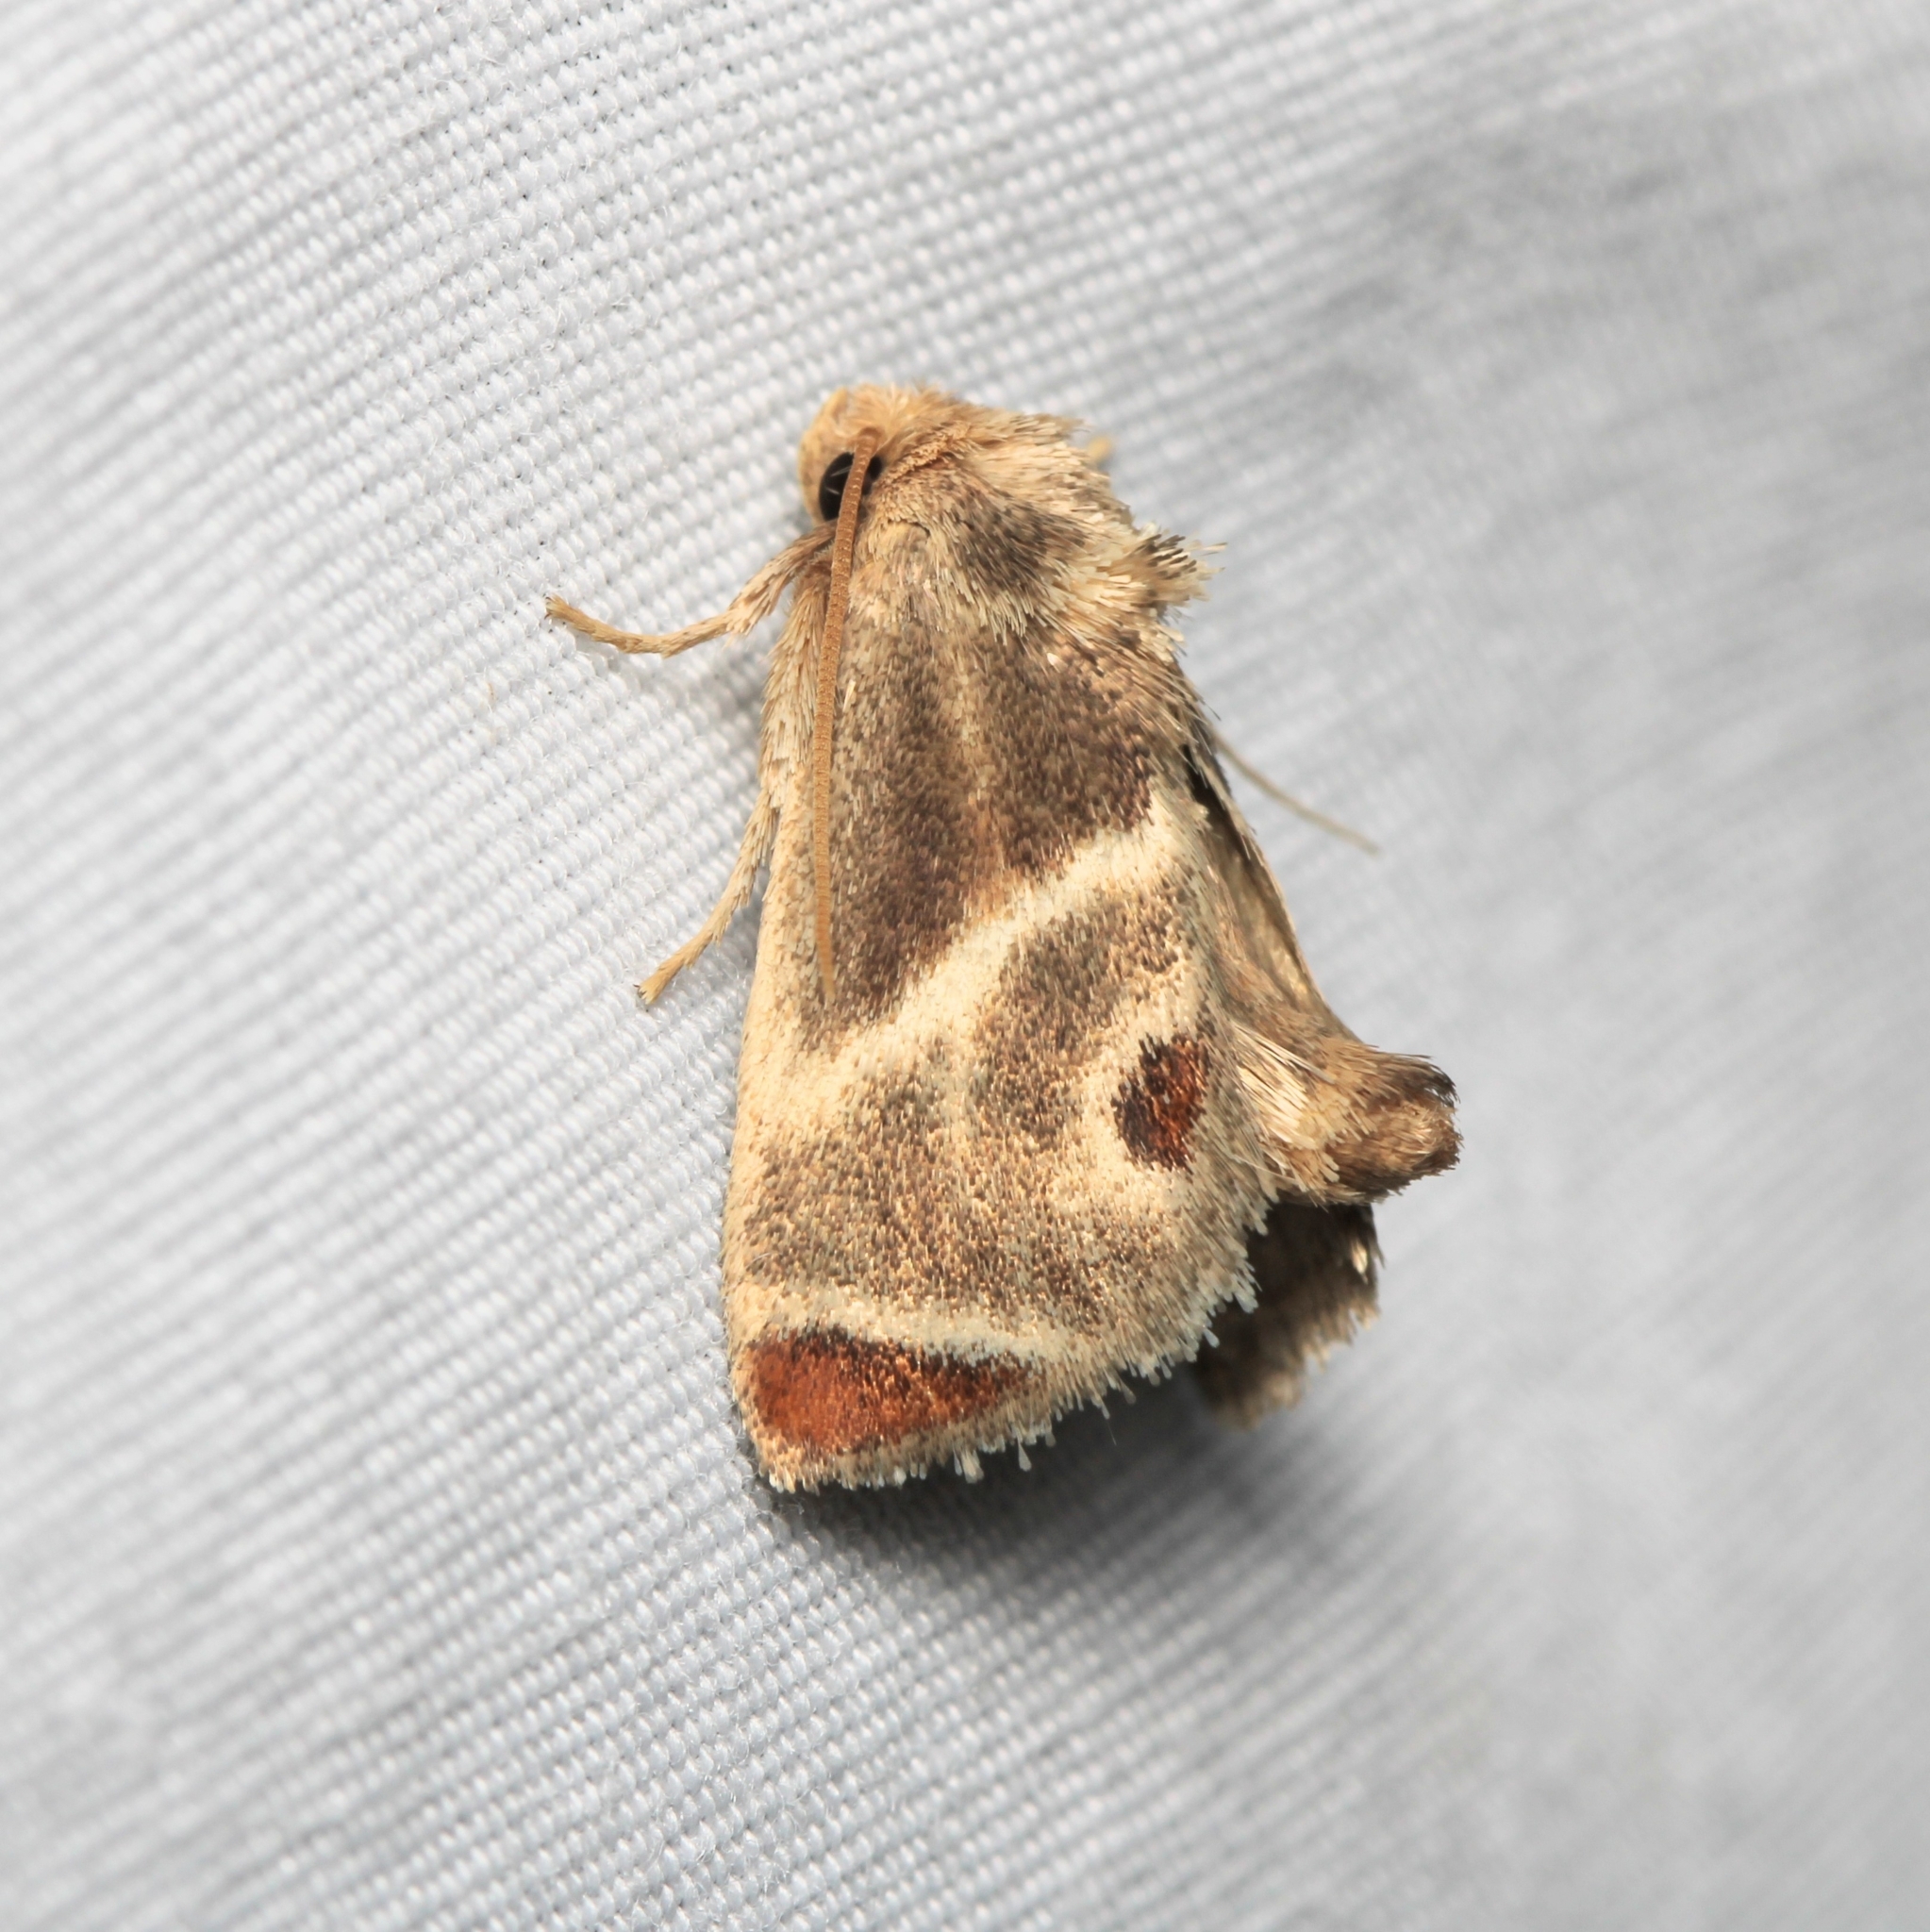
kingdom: Animalia
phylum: Arthropoda
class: Insecta
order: Lepidoptera
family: Limacodidae
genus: Apoda
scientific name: Apoda biguttata
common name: Shagreened slug moth
